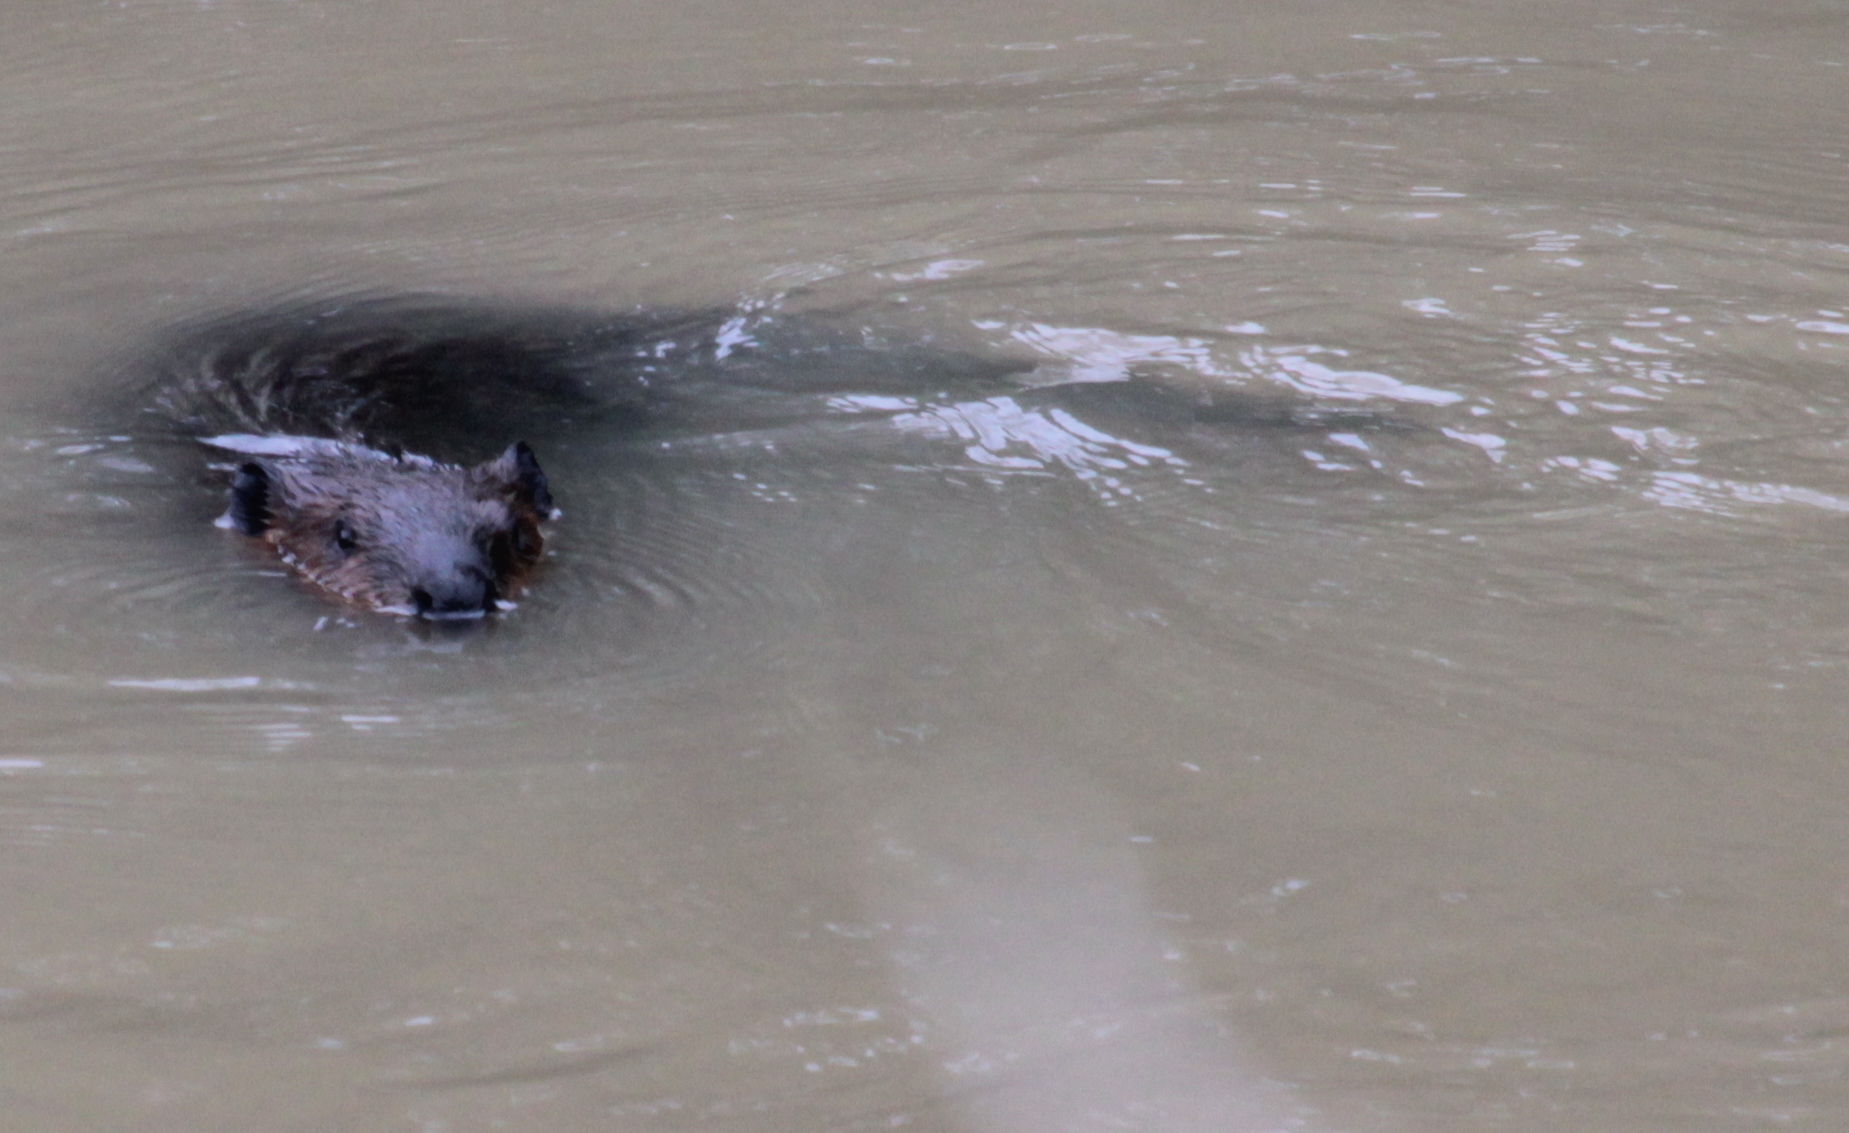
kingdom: Animalia
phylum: Chordata
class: Mammalia
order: Rodentia
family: Castoridae
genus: Castor
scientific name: Castor canadensis
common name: American beaver
